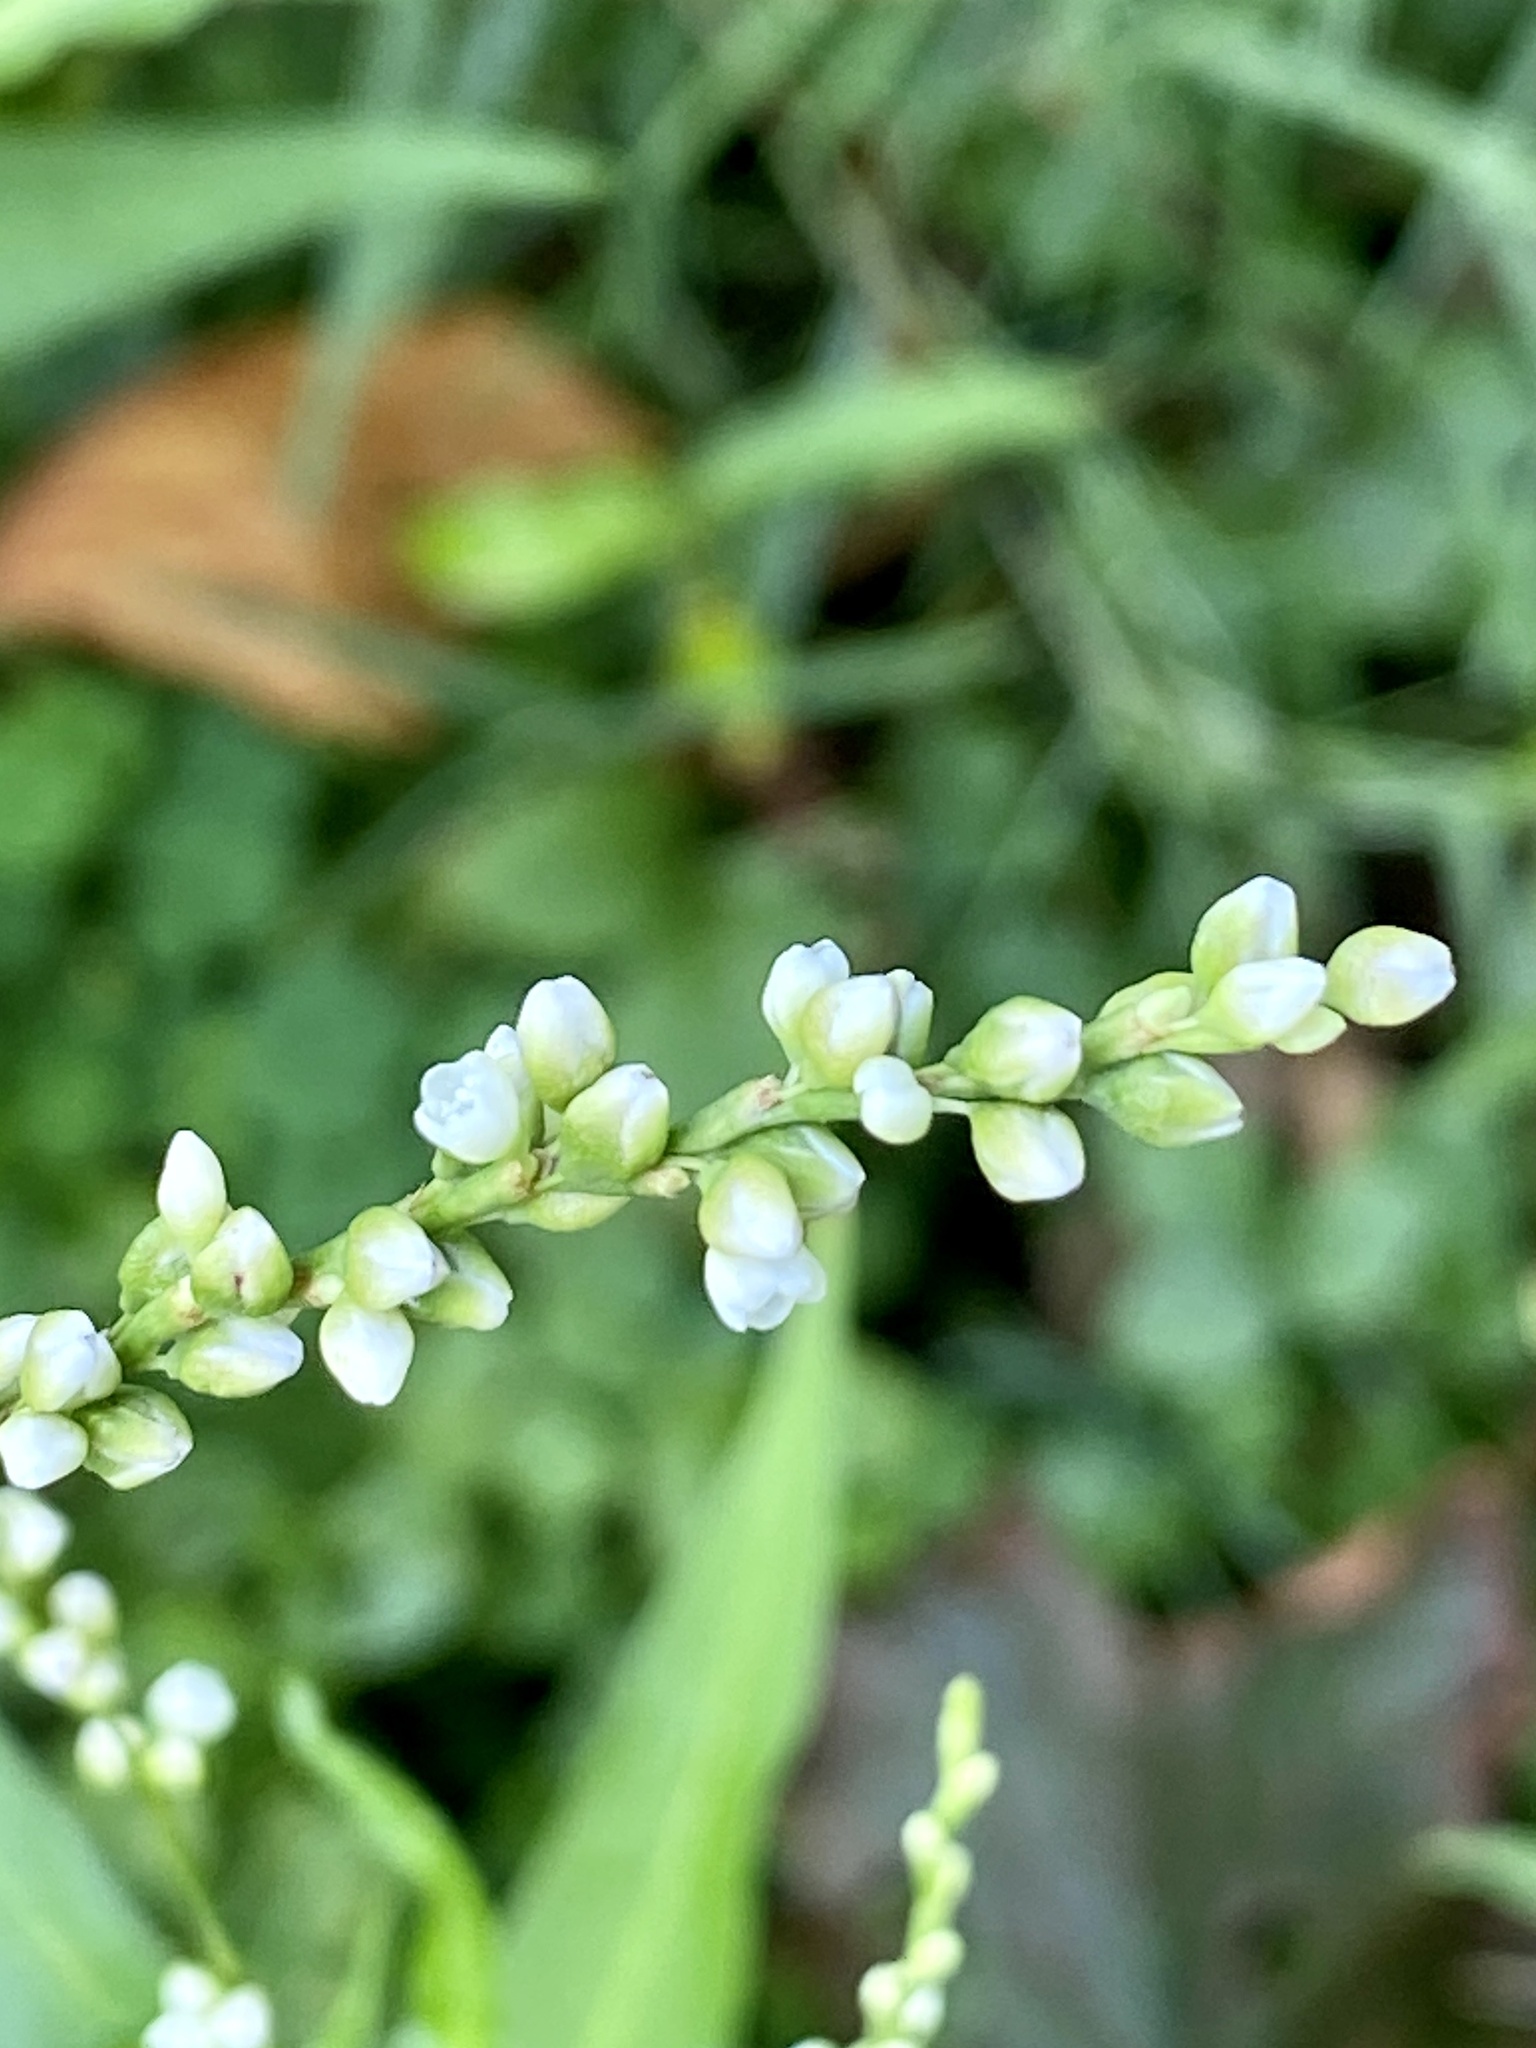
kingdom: Plantae
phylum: Tracheophyta
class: Magnoliopsida
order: Caryophyllales
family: Polygonaceae
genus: Persicaria
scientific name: Persicaria punctata
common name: Dotted smartweed
